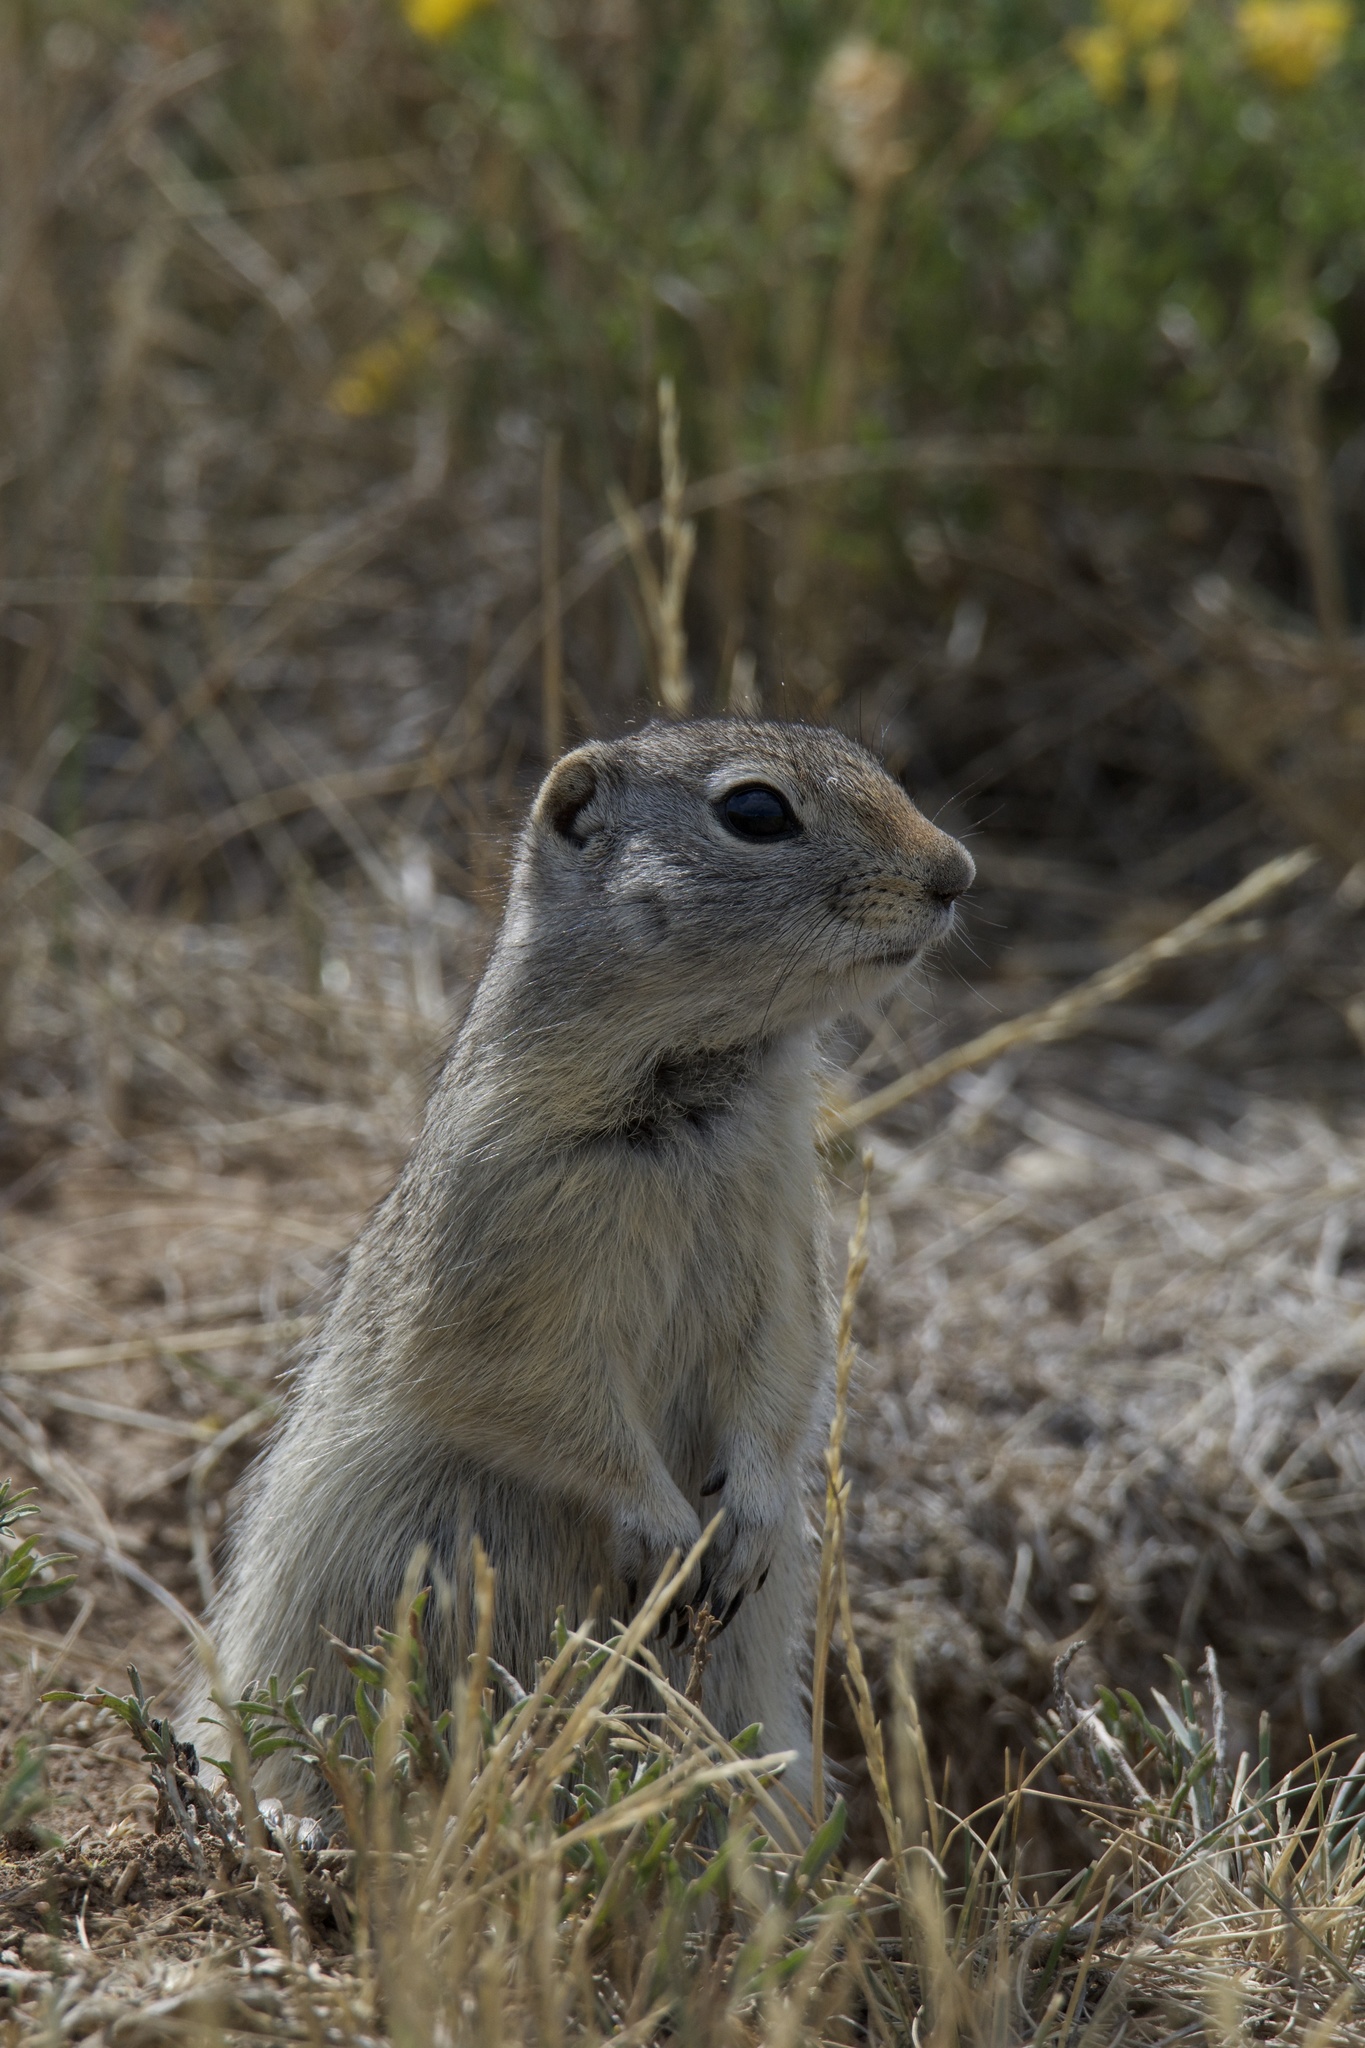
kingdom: Animalia
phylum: Chordata
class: Mammalia
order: Rodentia
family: Sciuridae
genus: Urocitellus
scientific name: Urocitellus elegans
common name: Wyoming ground squirrel
